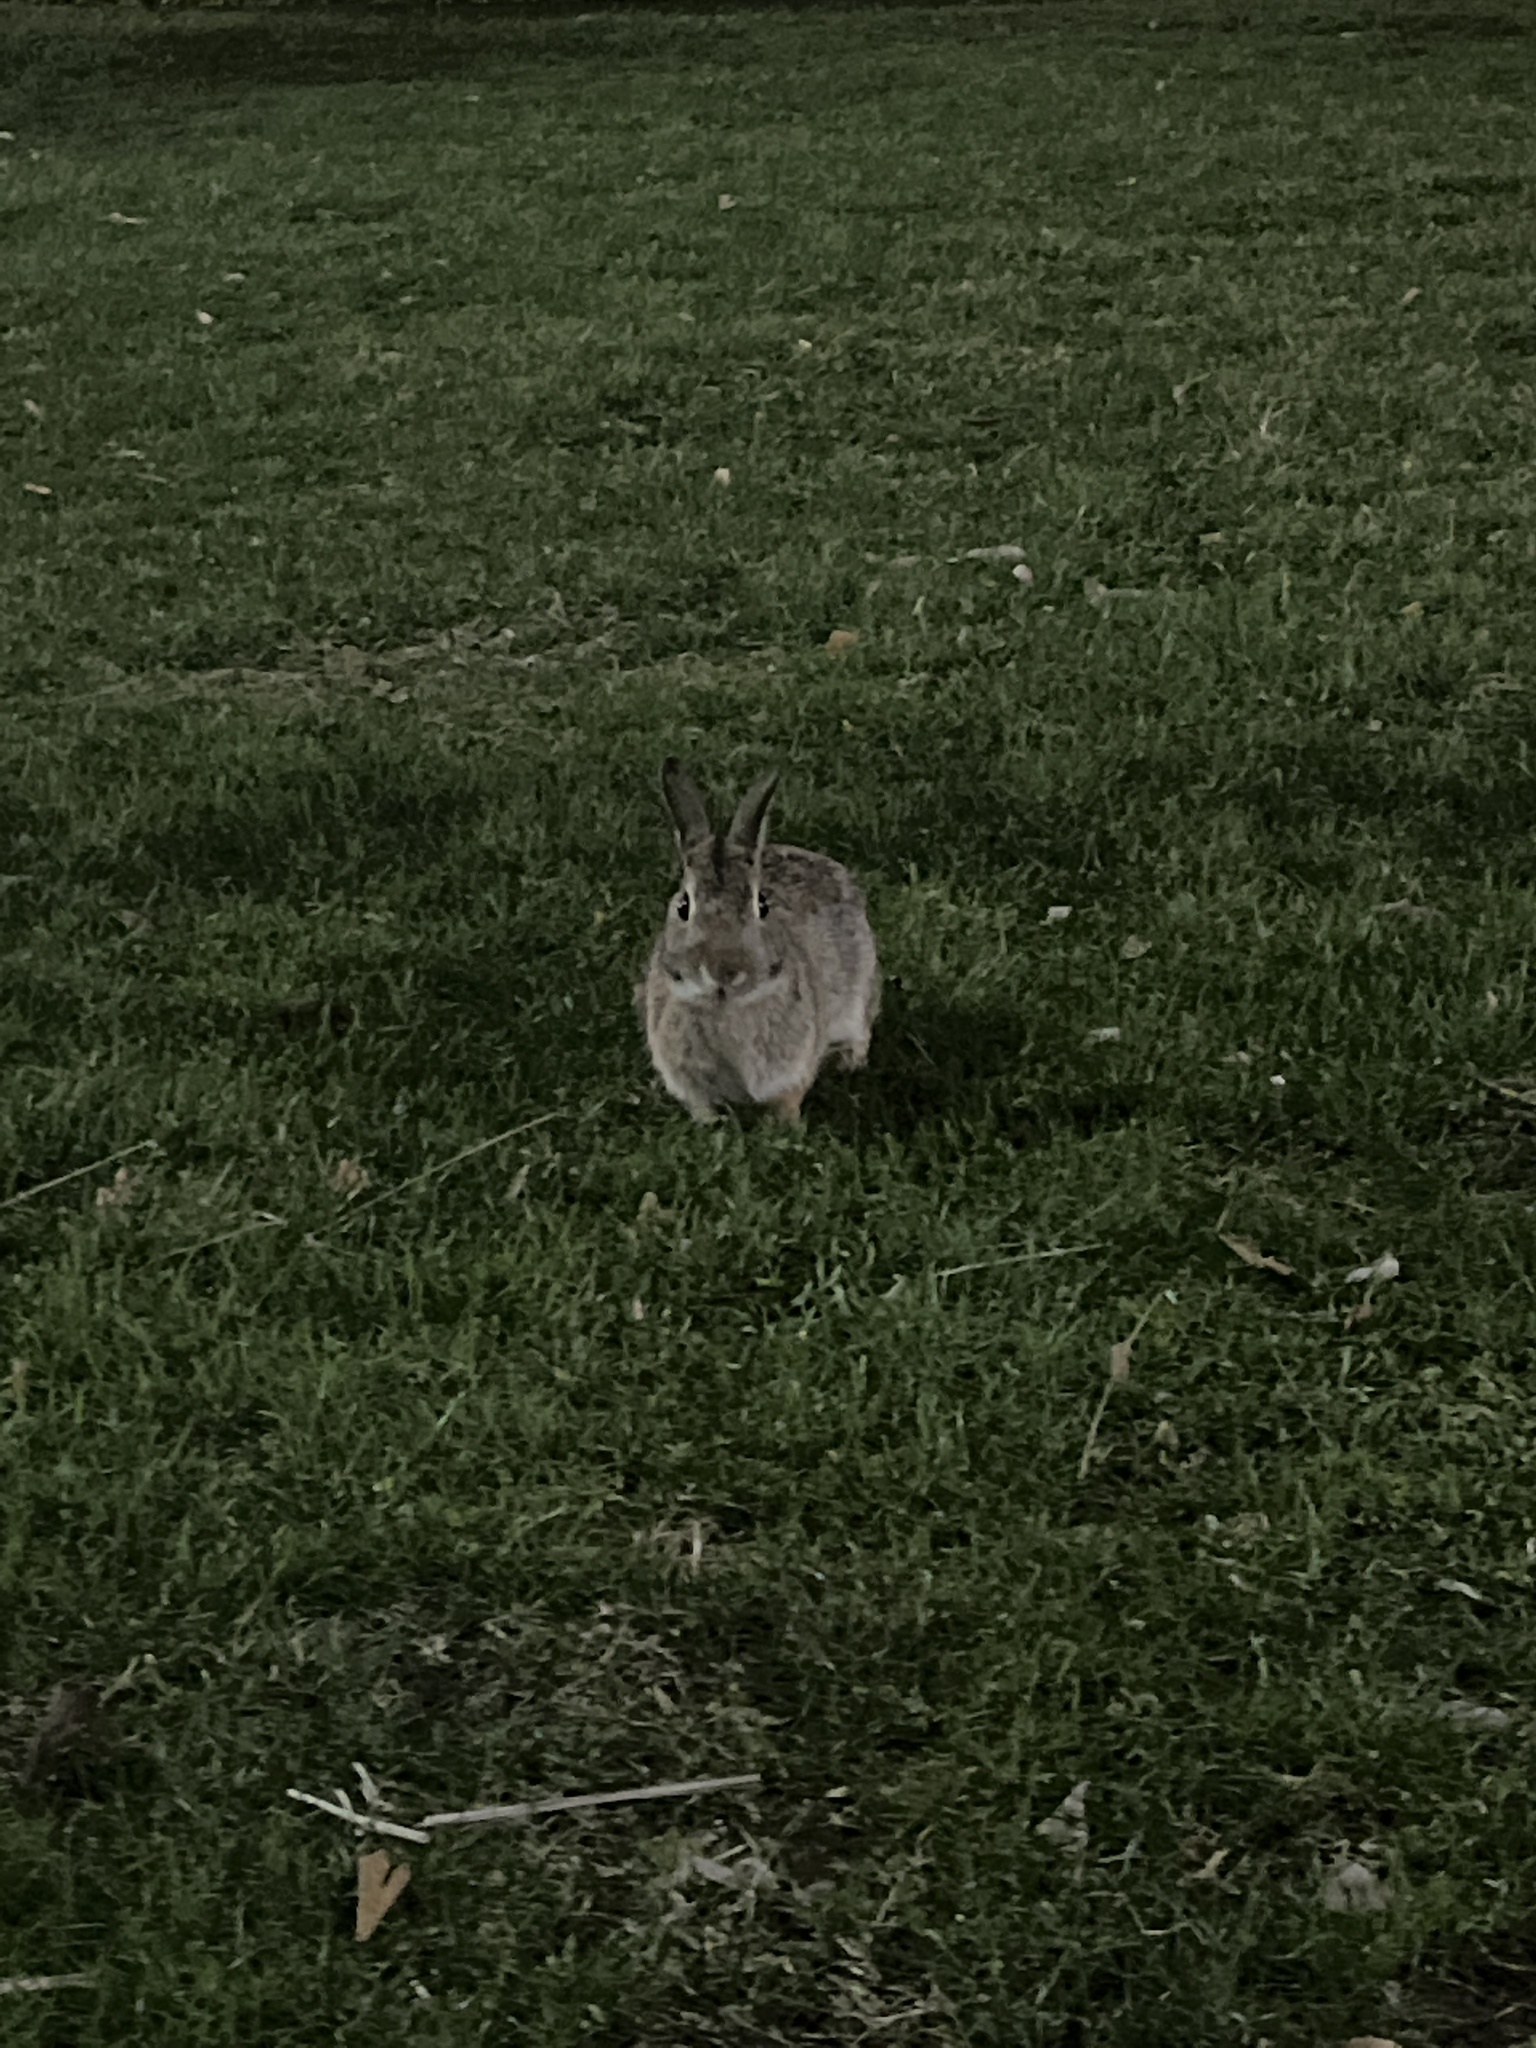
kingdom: Animalia
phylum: Chordata
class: Mammalia
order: Lagomorpha
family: Leporidae
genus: Sylvilagus
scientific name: Sylvilagus floridanus
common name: Eastern cottontail
